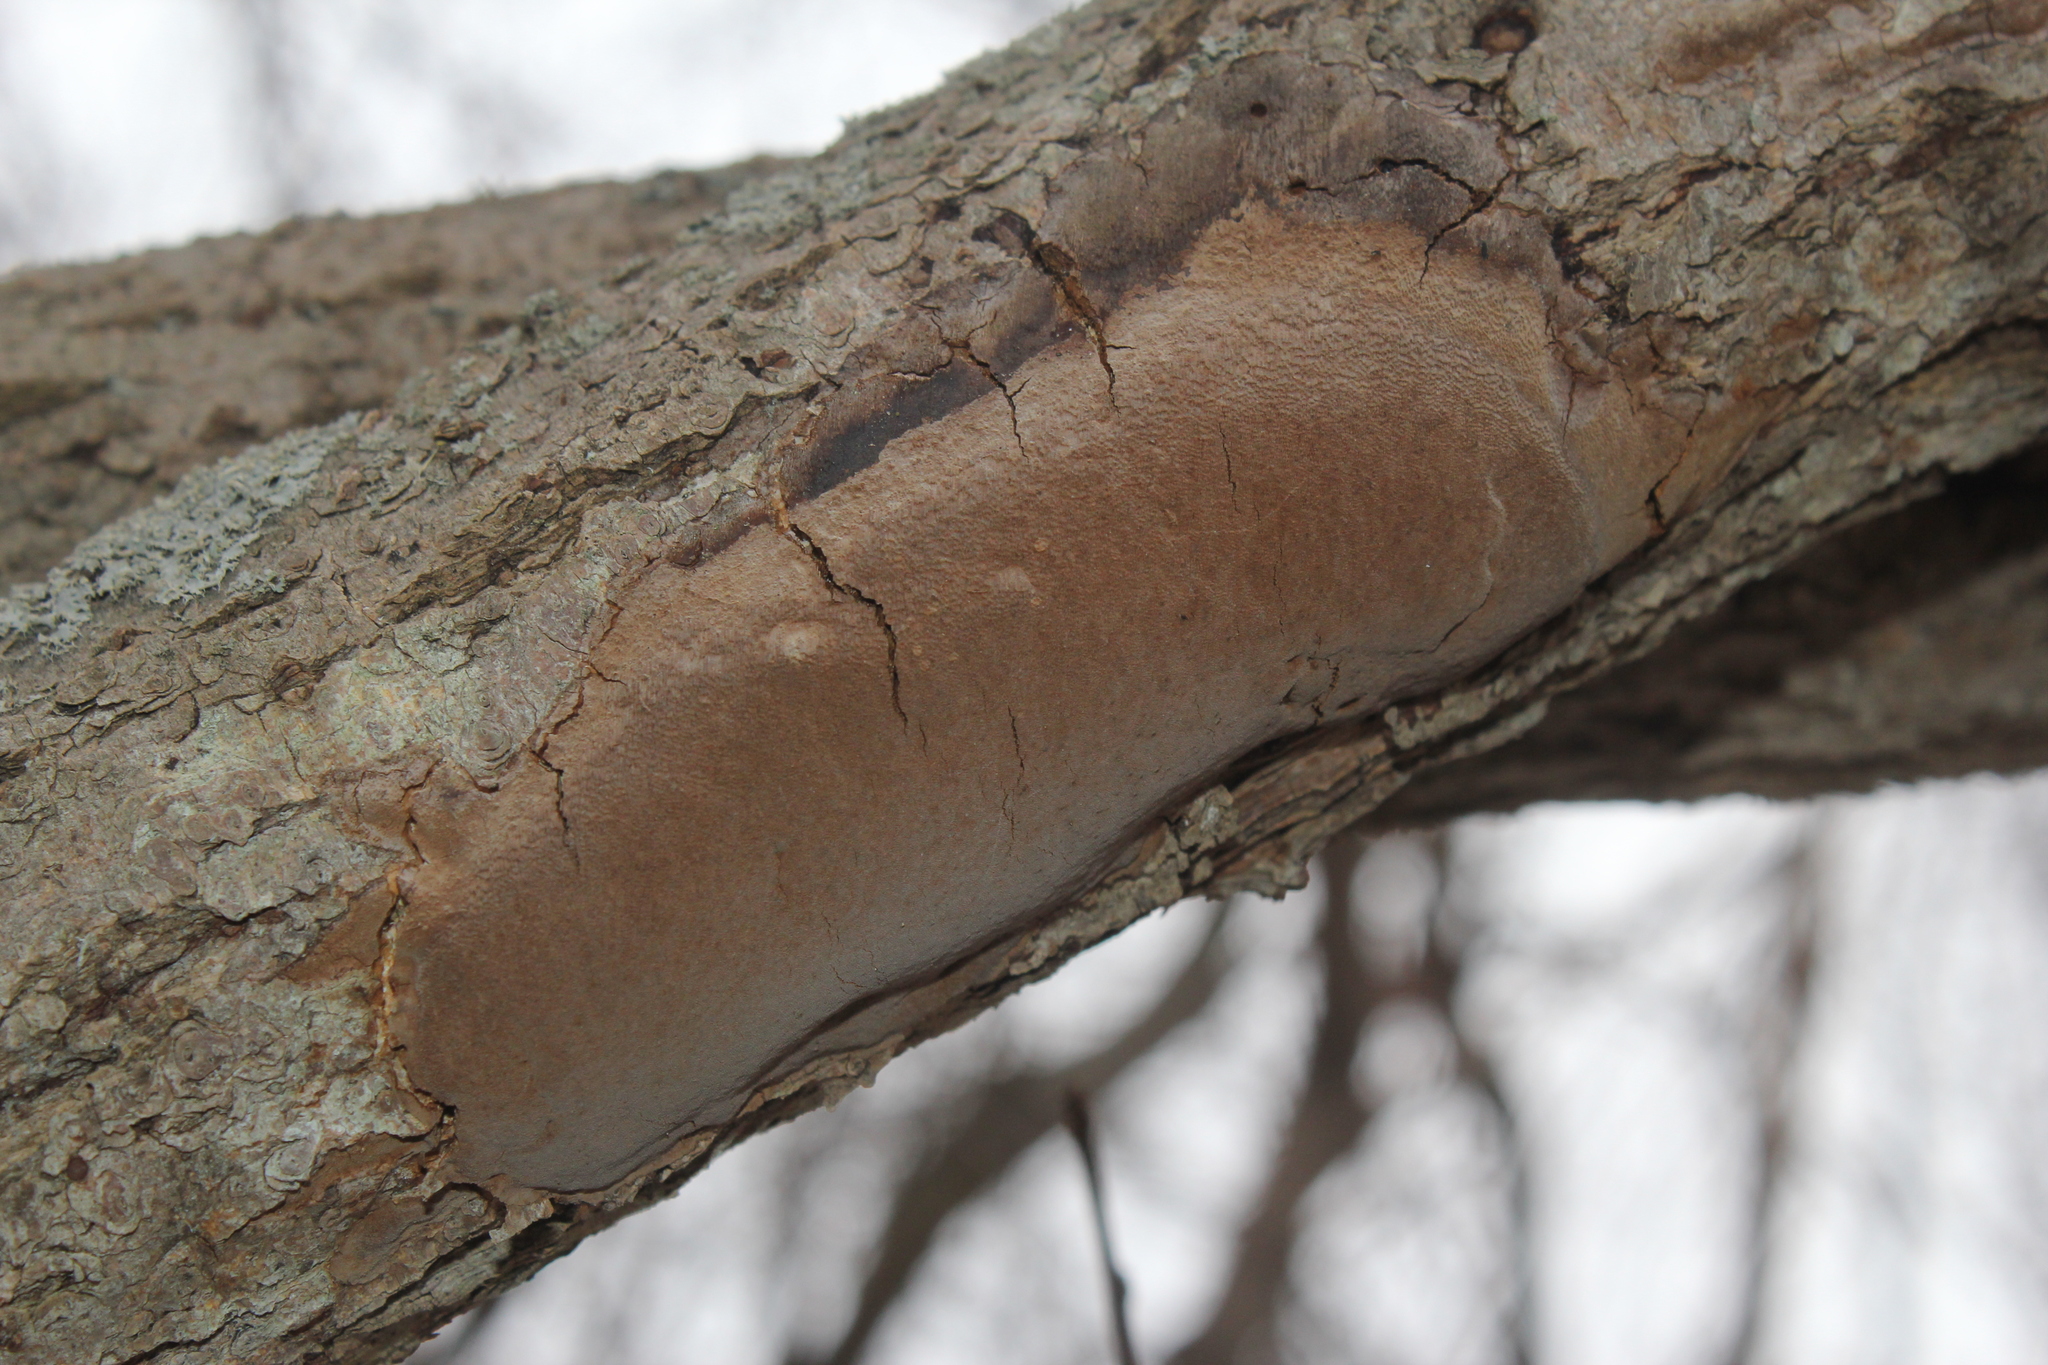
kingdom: Fungi
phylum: Basidiomycota
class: Agaricomycetes
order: Hymenochaetales
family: Hymenochaetaceae
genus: Fomitiporia
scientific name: Fomitiporia punctata
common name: Elbowpatch crust
